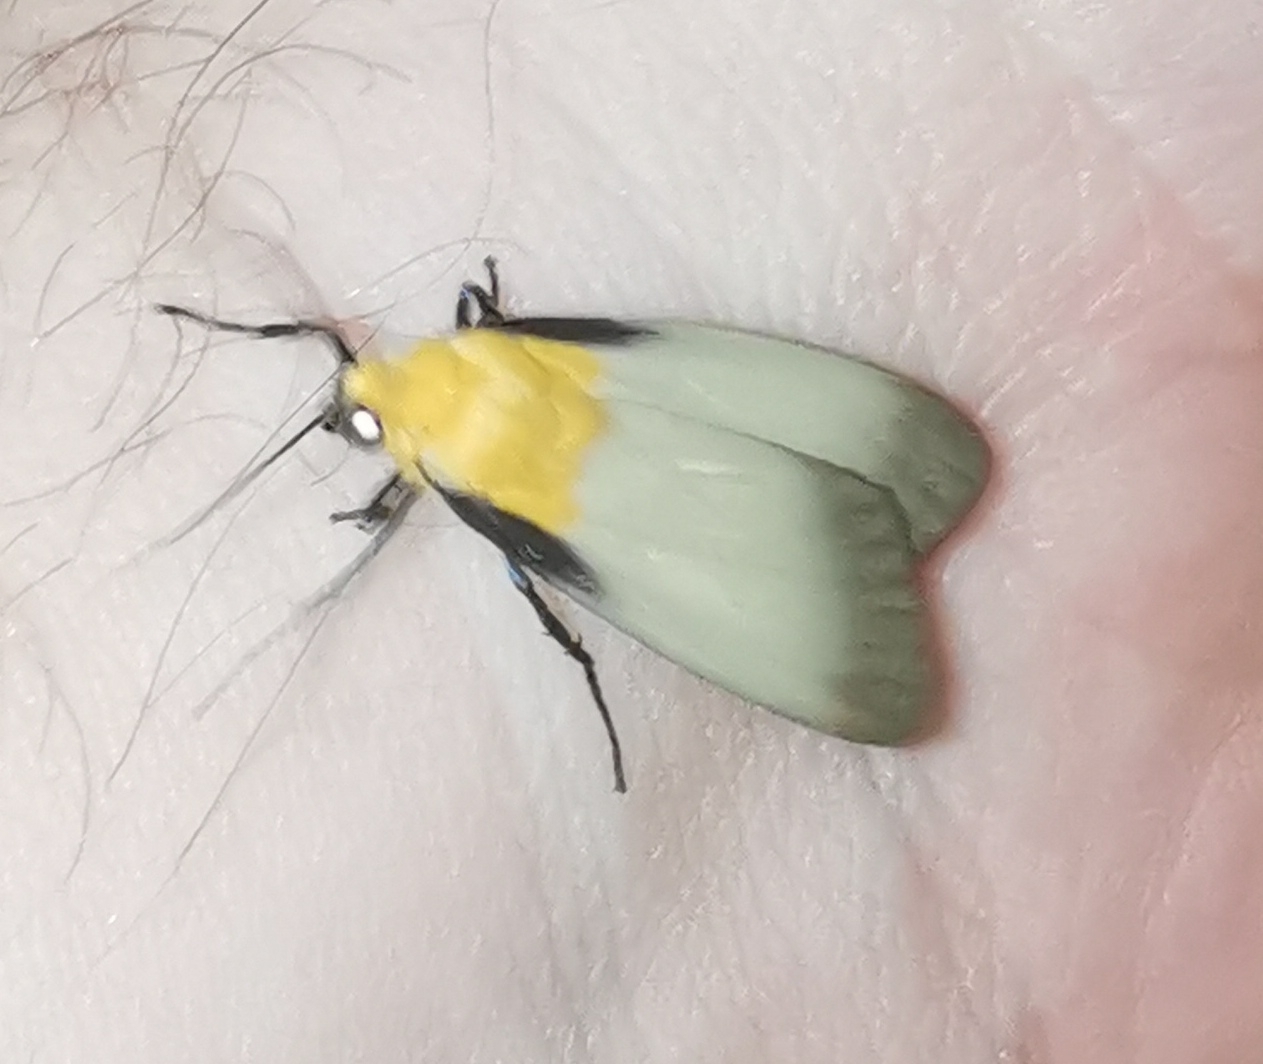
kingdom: Animalia
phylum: Arthropoda
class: Insecta
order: Lepidoptera
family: Erebidae
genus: Lithosia
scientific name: Lithosia quadra
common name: Four-spotted footman
